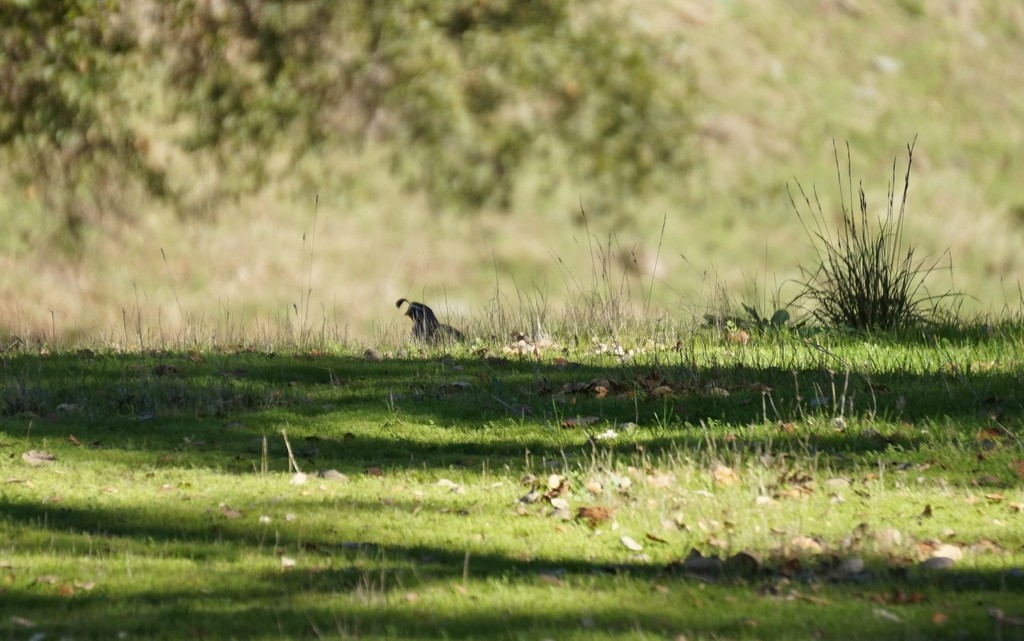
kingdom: Animalia
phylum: Chordata
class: Aves
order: Galliformes
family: Odontophoridae
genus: Callipepla
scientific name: Callipepla californica
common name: California quail
